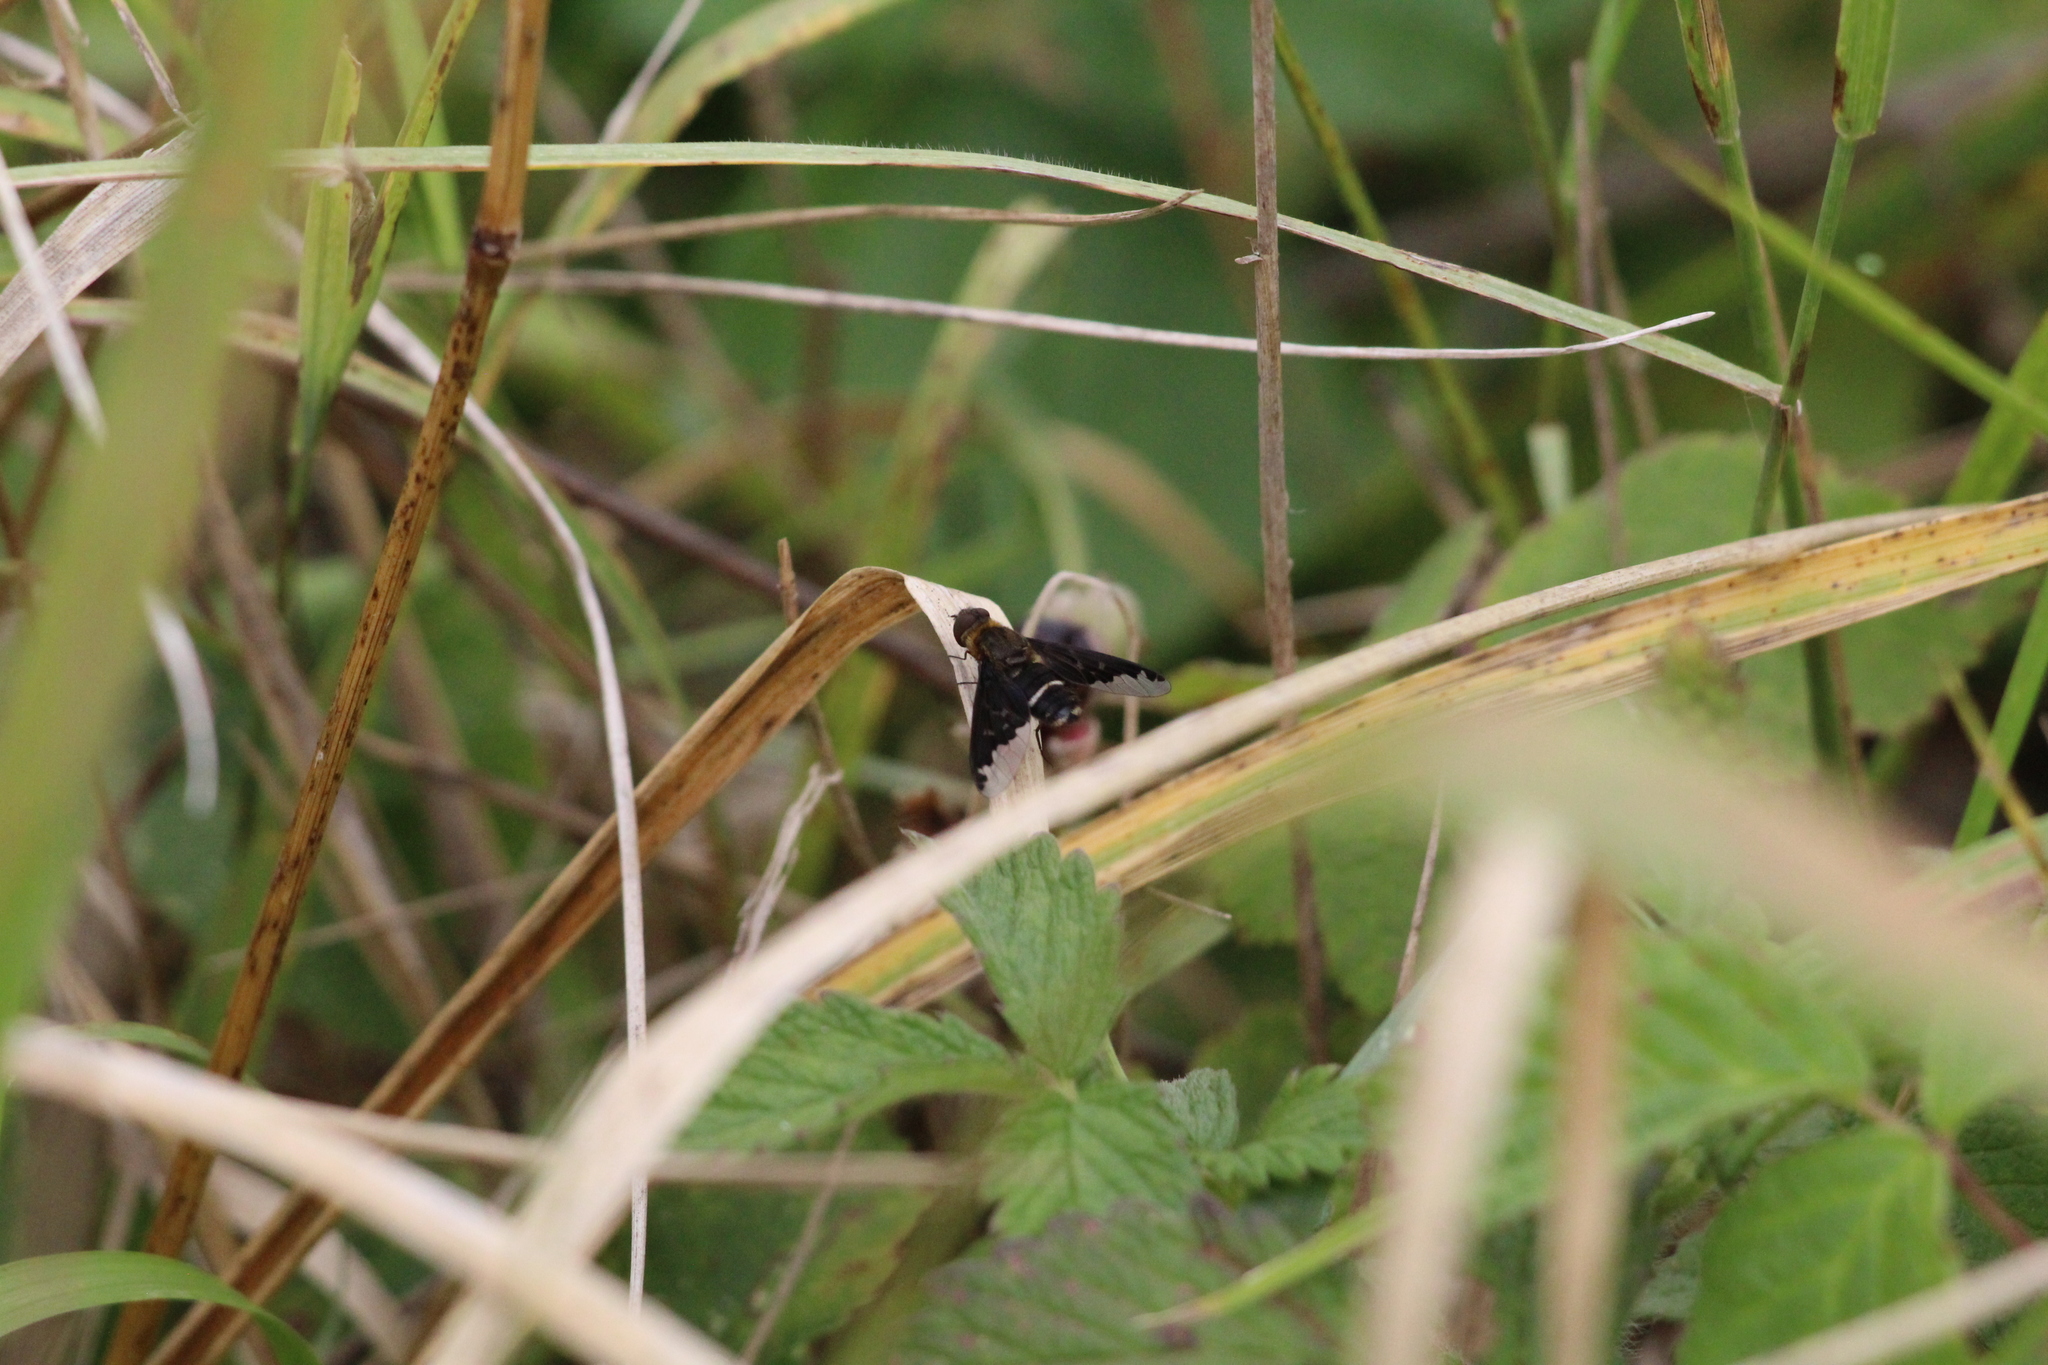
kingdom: Animalia
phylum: Arthropoda
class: Insecta
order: Diptera
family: Bombyliidae
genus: Hemipenthes
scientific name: Hemipenthes velutina
